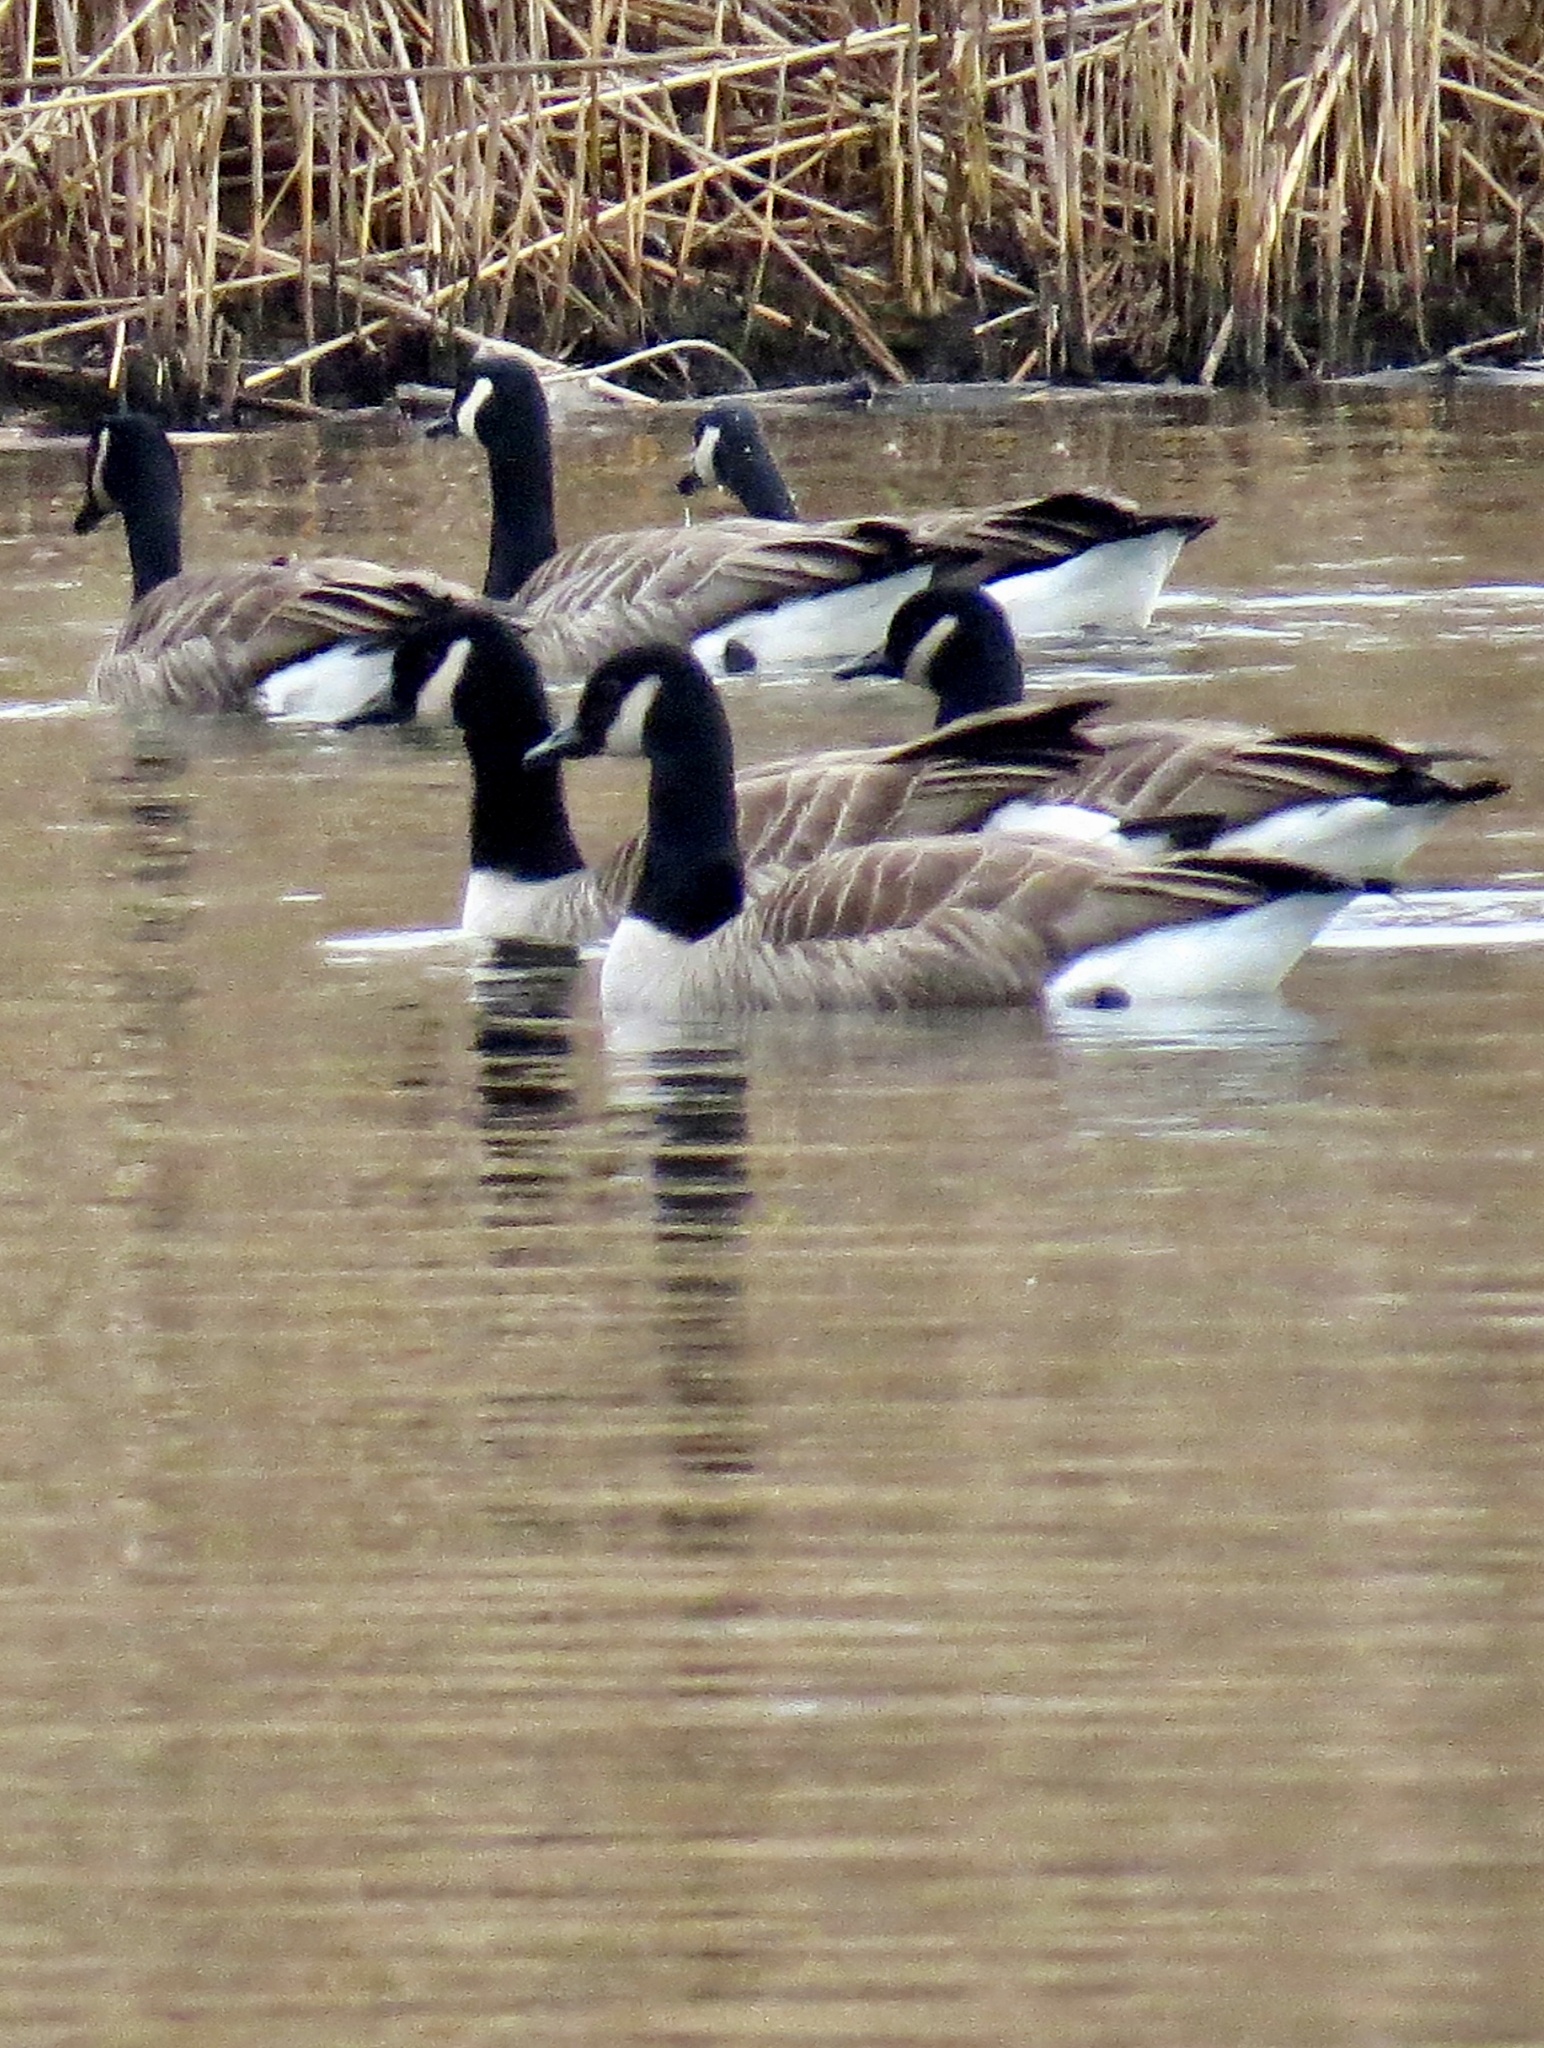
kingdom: Animalia
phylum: Chordata
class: Aves
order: Anseriformes
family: Anatidae
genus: Branta
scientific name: Branta canadensis
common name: Canada goose
